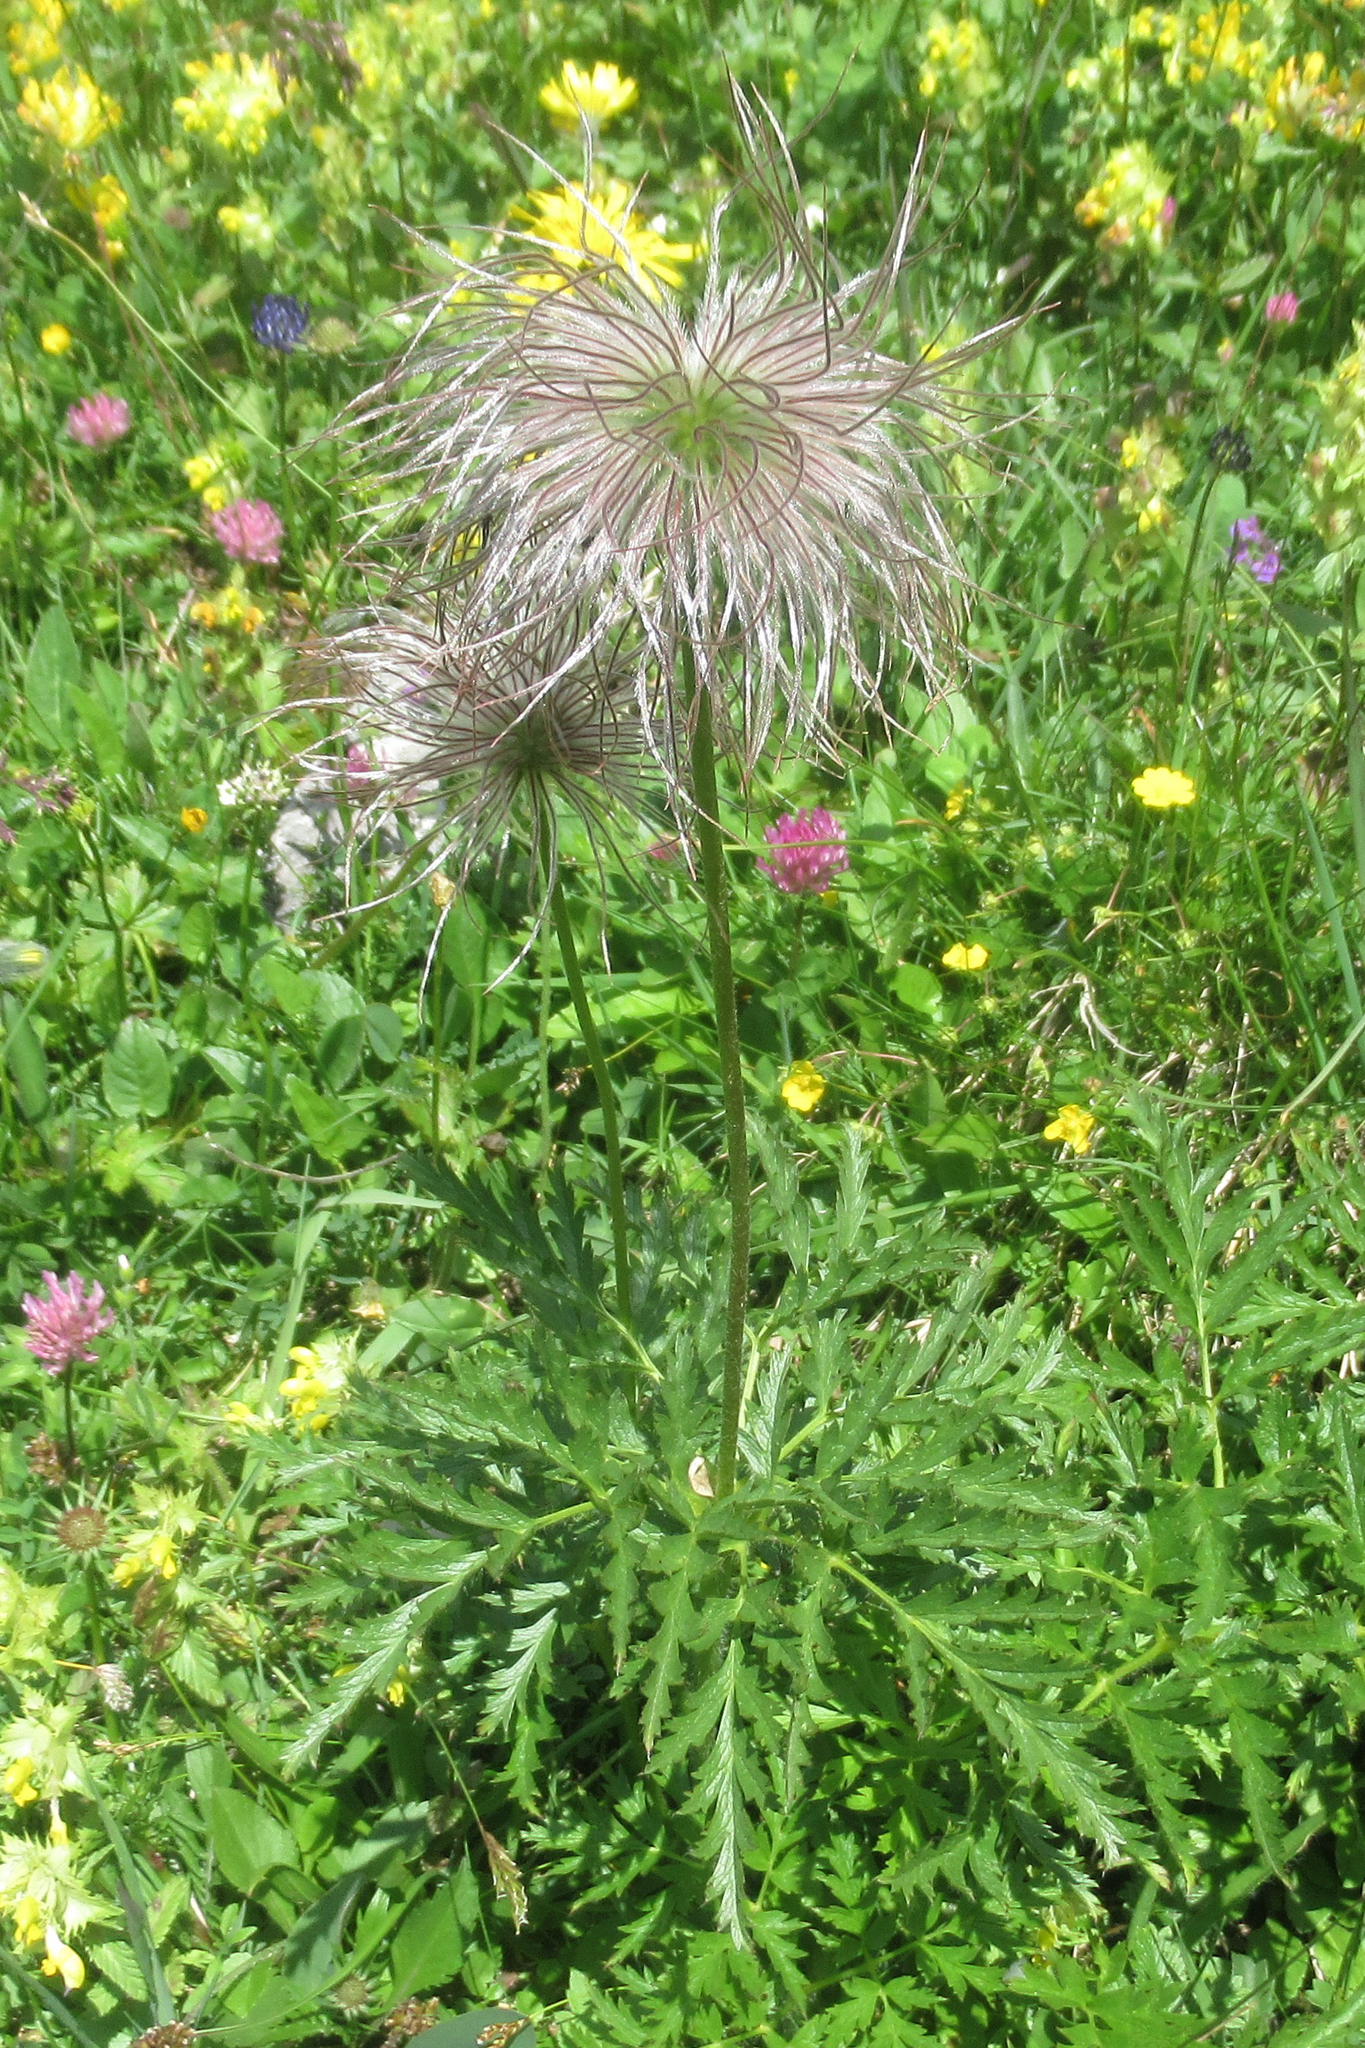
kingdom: Plantae
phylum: Tracheophyta
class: Magnoliopsida
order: Ranunculales
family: Ranunculaceae
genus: Pulsatilla
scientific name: Pulsatilla alpina
